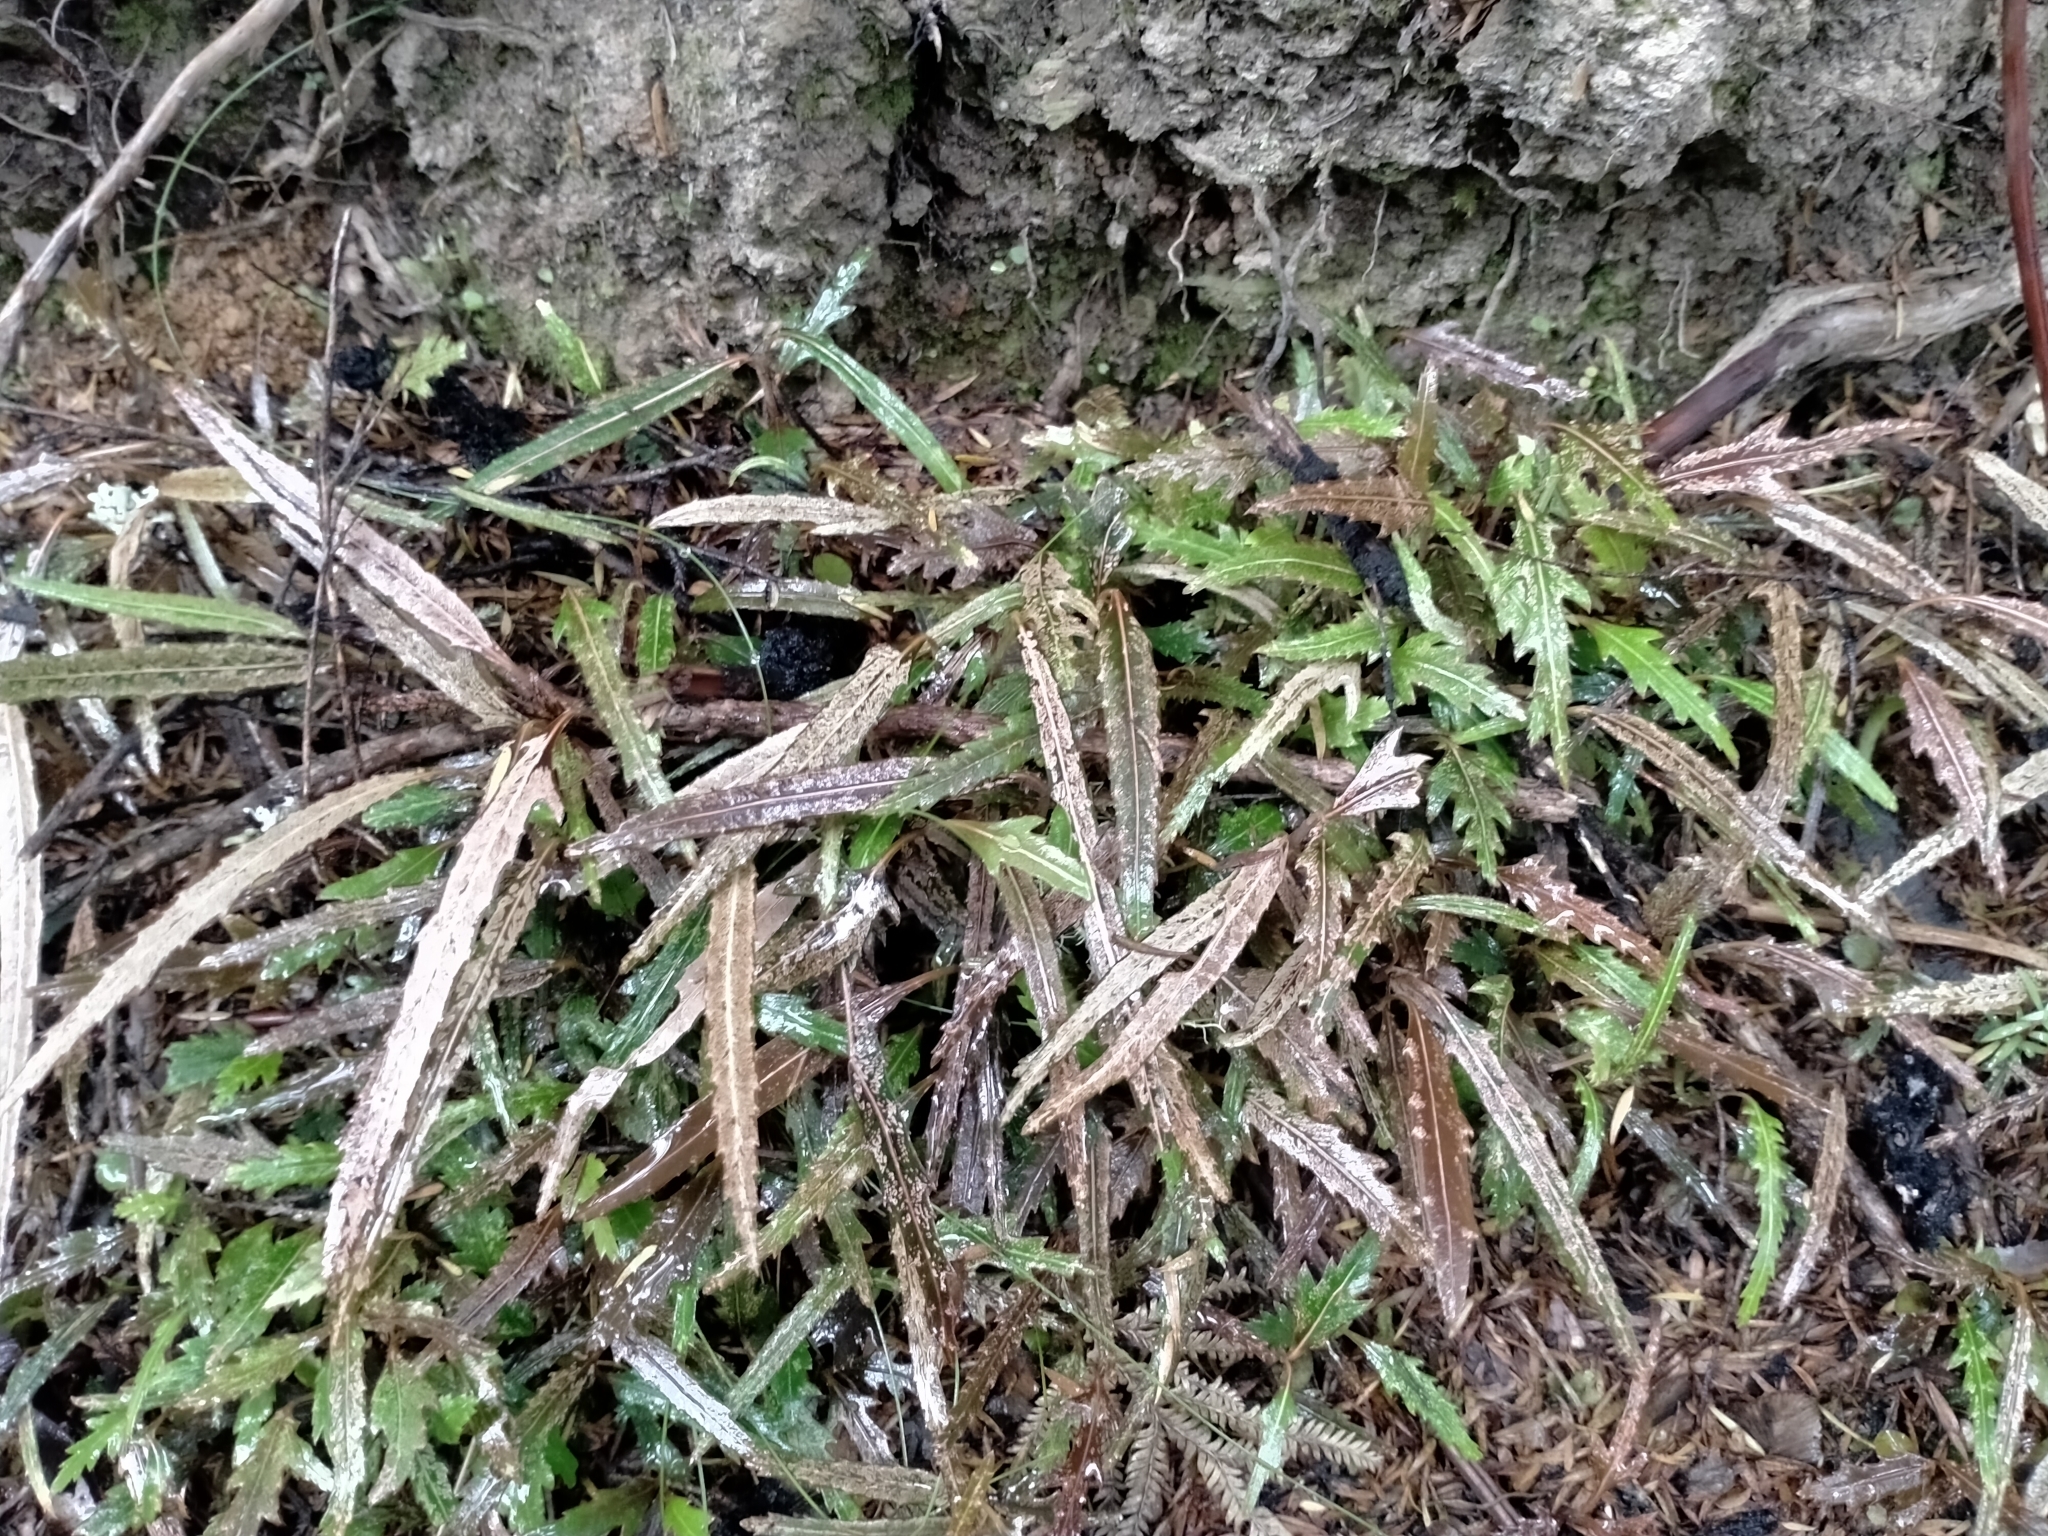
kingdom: Plantae
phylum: Tracheophyta
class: Magnoliopsida
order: Apiales
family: Araliaceae
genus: Pseudopanax
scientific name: Pseudopanax crassifolius
